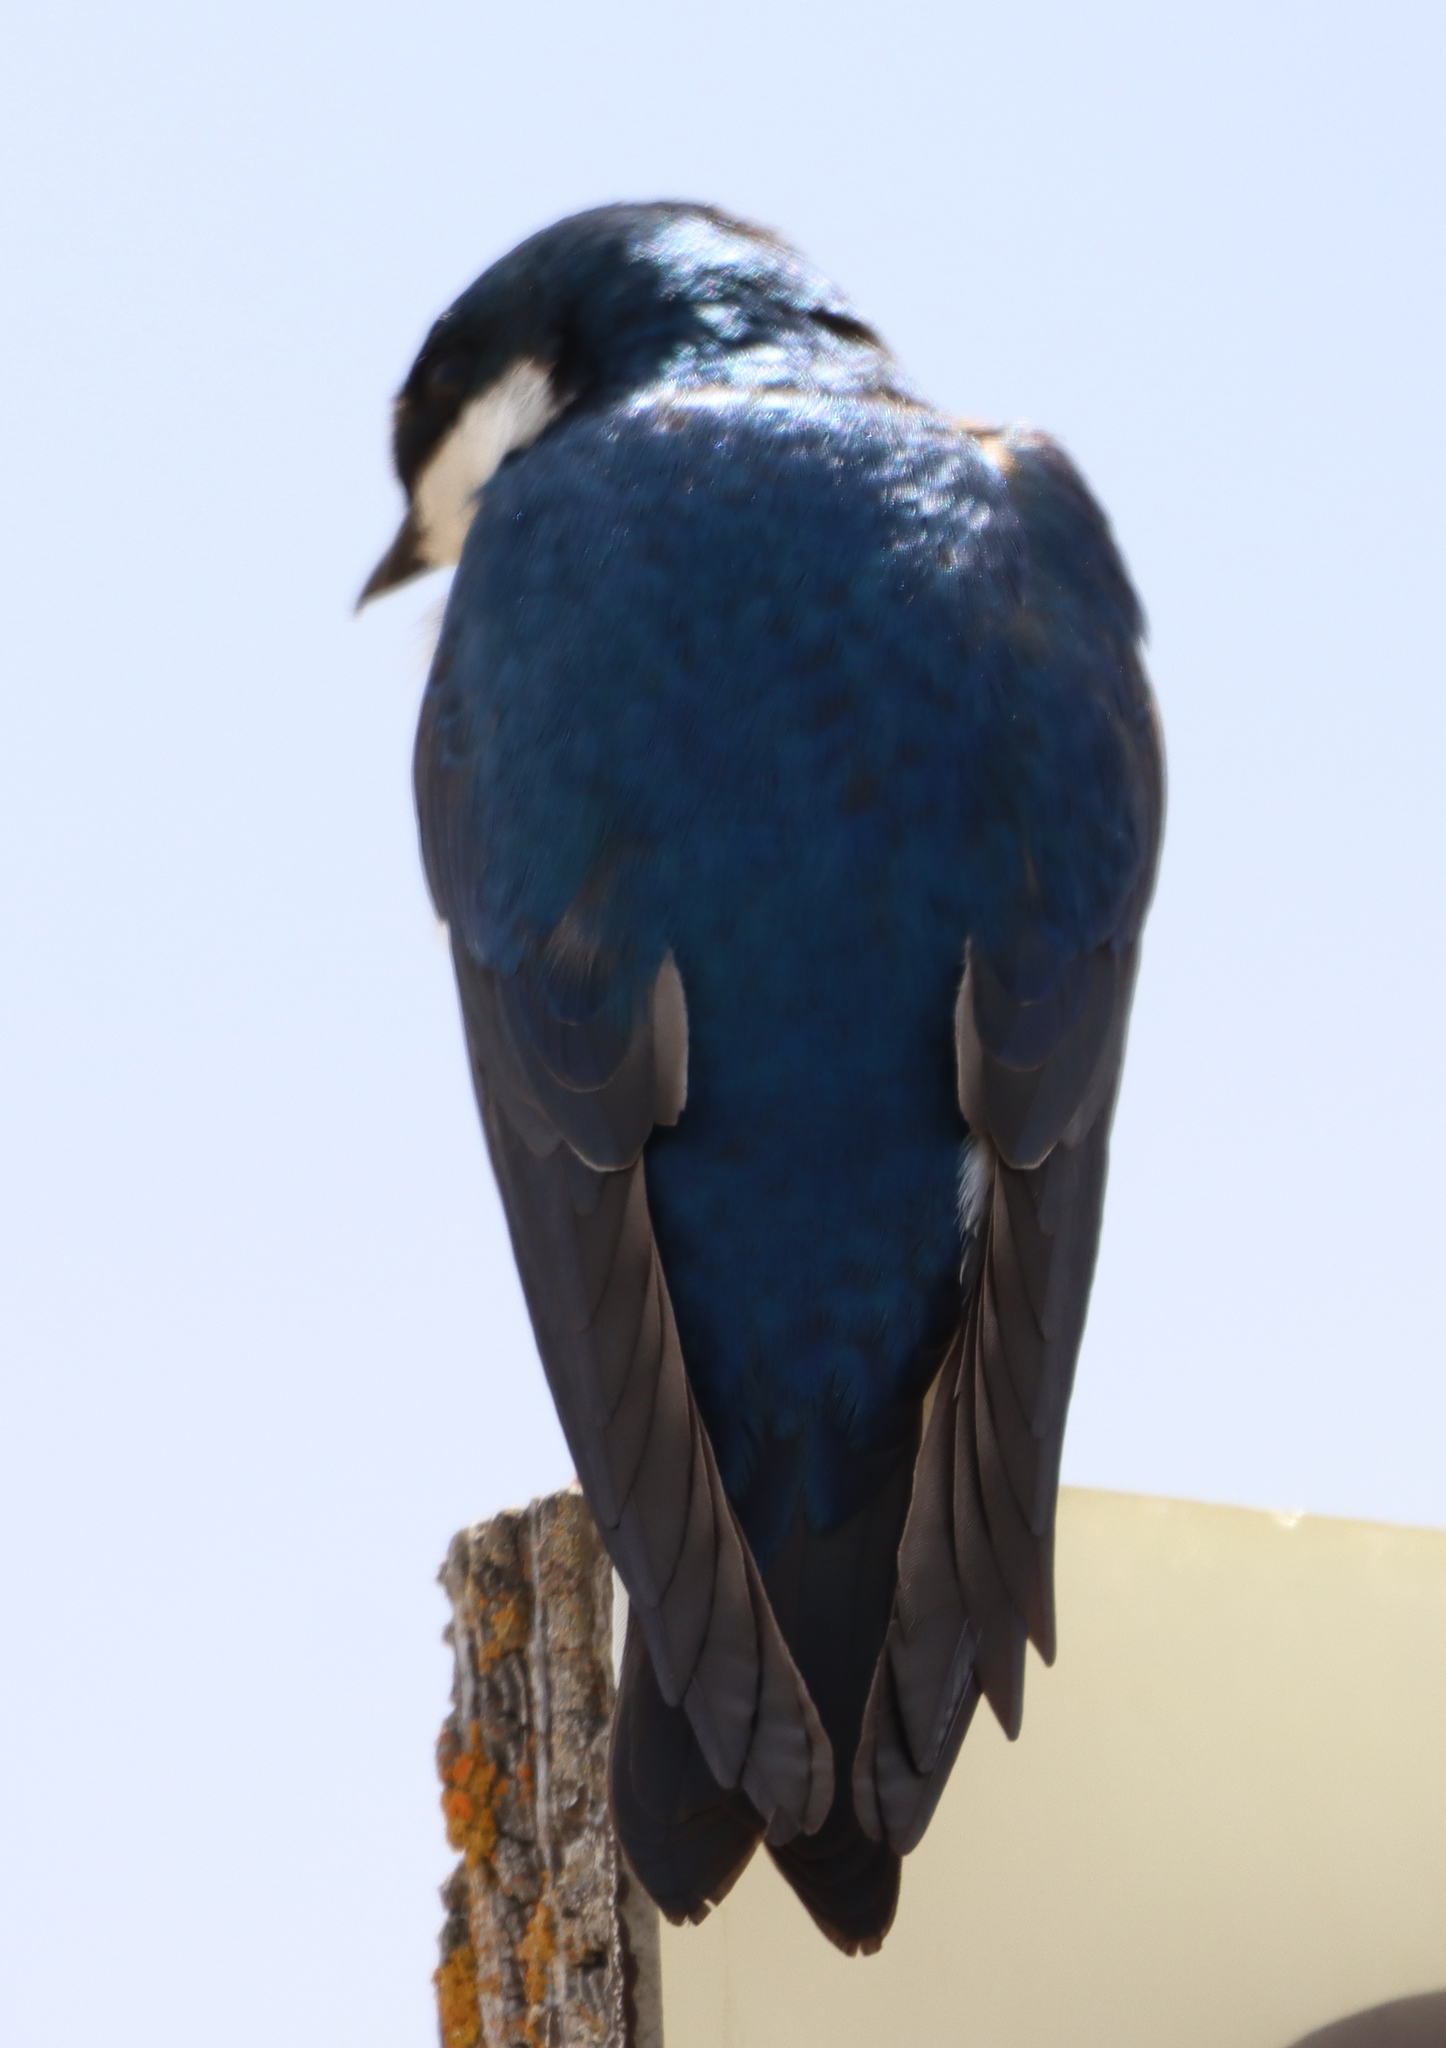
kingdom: Animalia
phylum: Chordata
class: Aves
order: Passeriformes
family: Hirundinidae
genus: Tachycineta
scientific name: Tachycineta bicolor
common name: Tree swallow
